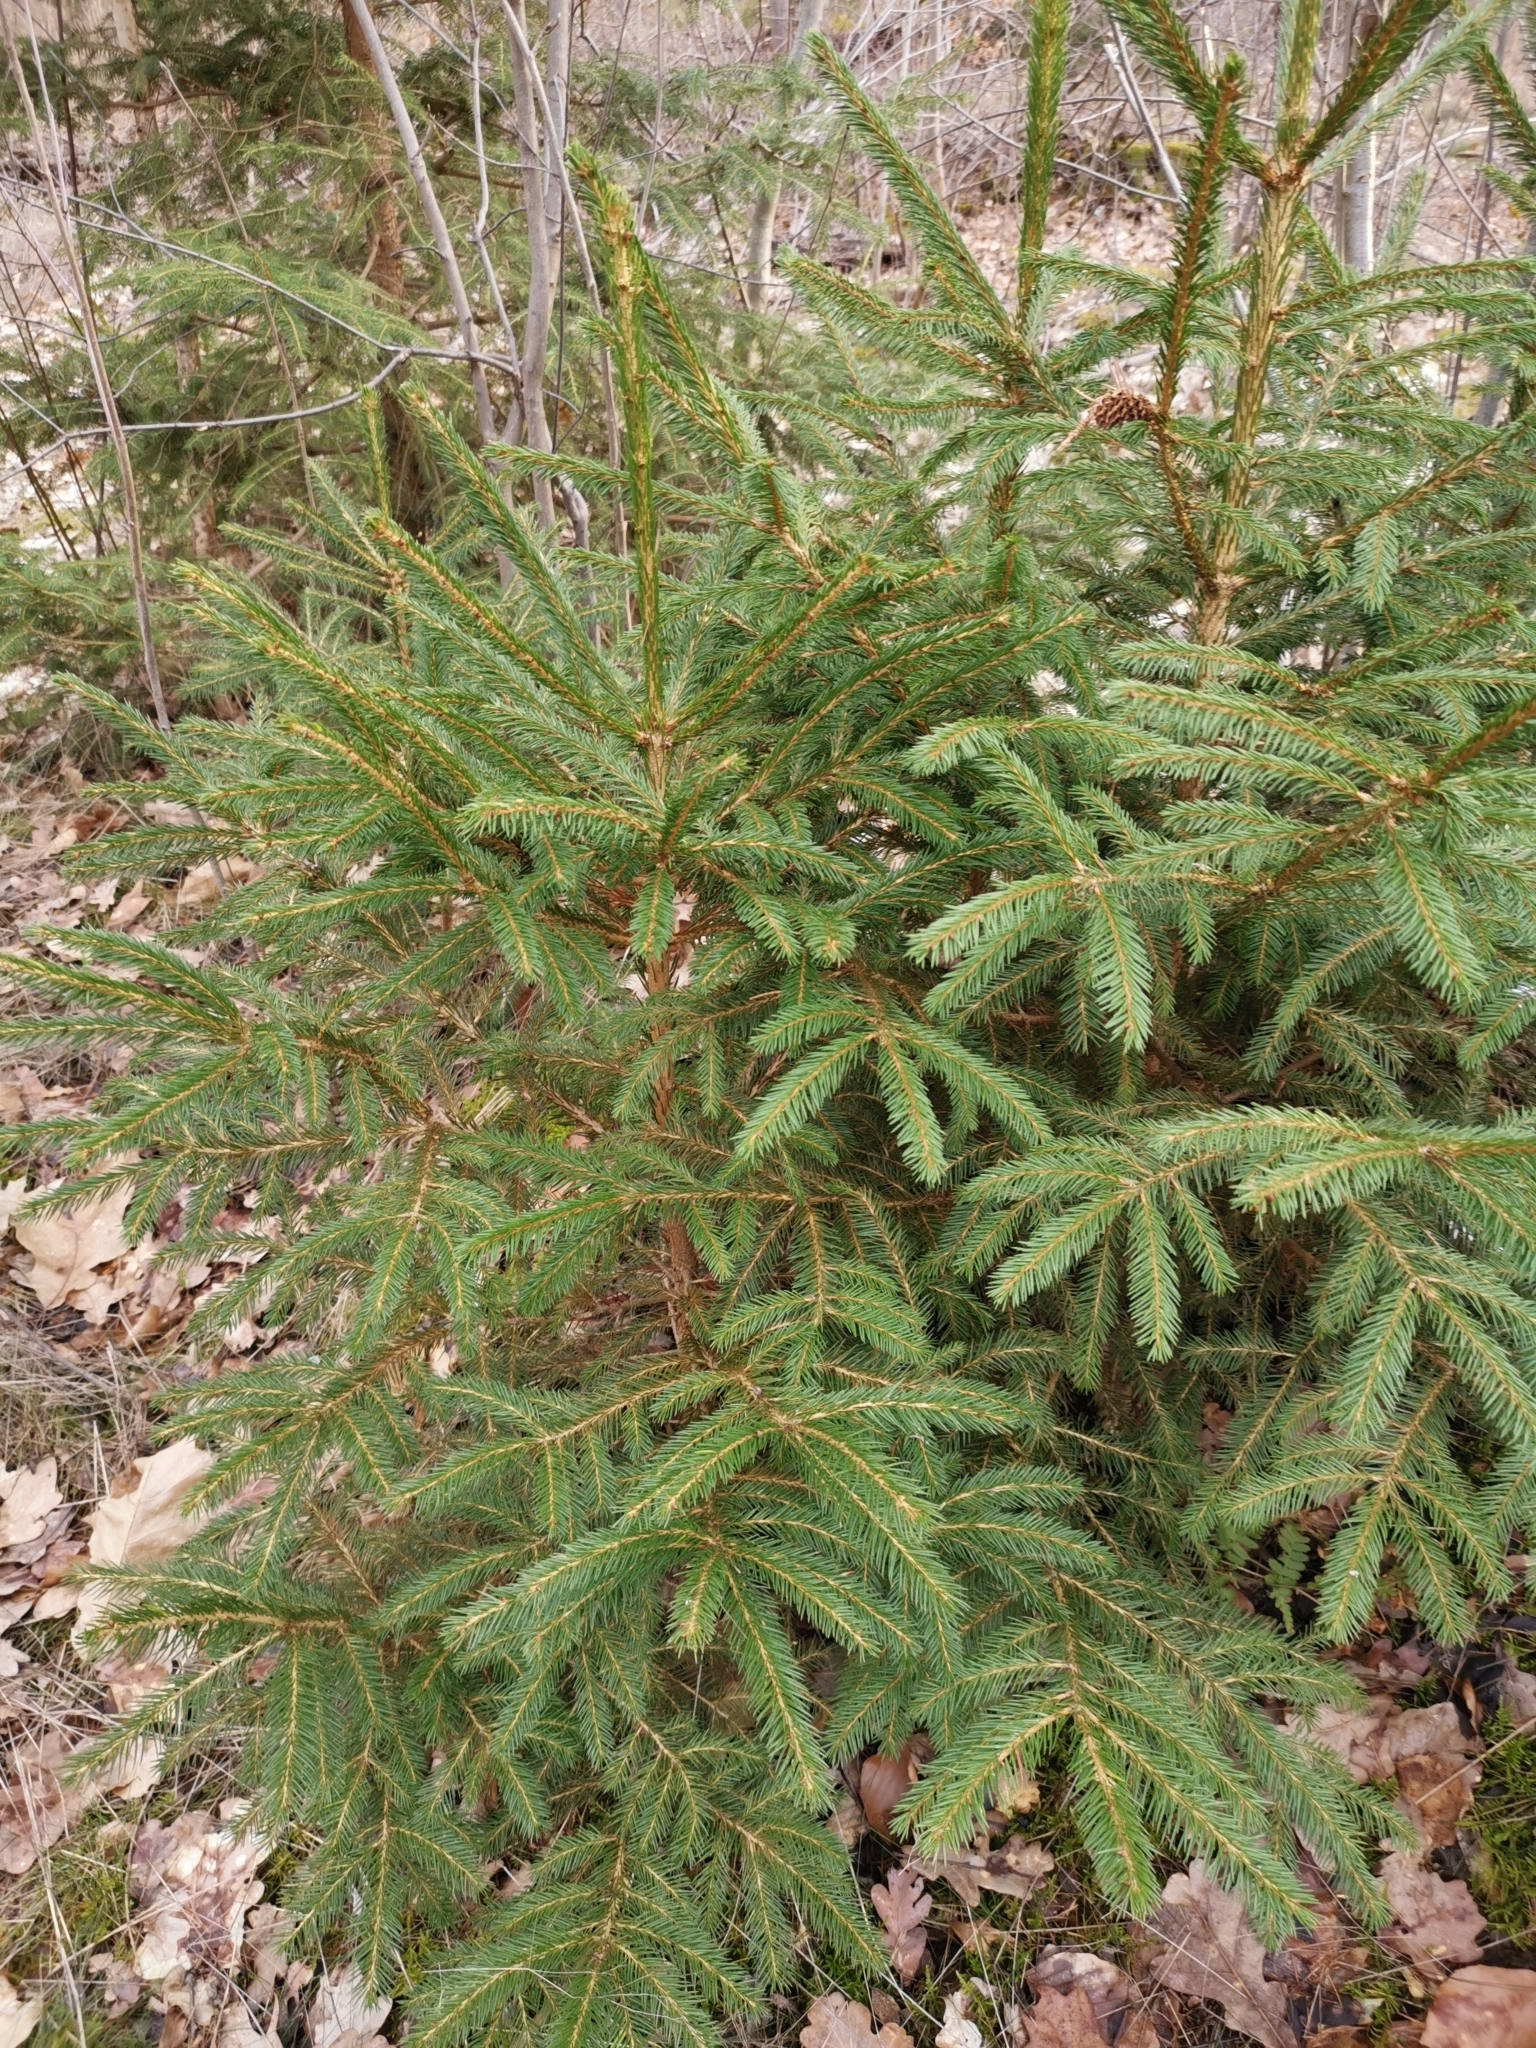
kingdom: Plantae
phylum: Tracheophyta
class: Pinopsida
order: Pinales
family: Pinaceae
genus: Picea
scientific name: Picea abies
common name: Norway spruce
